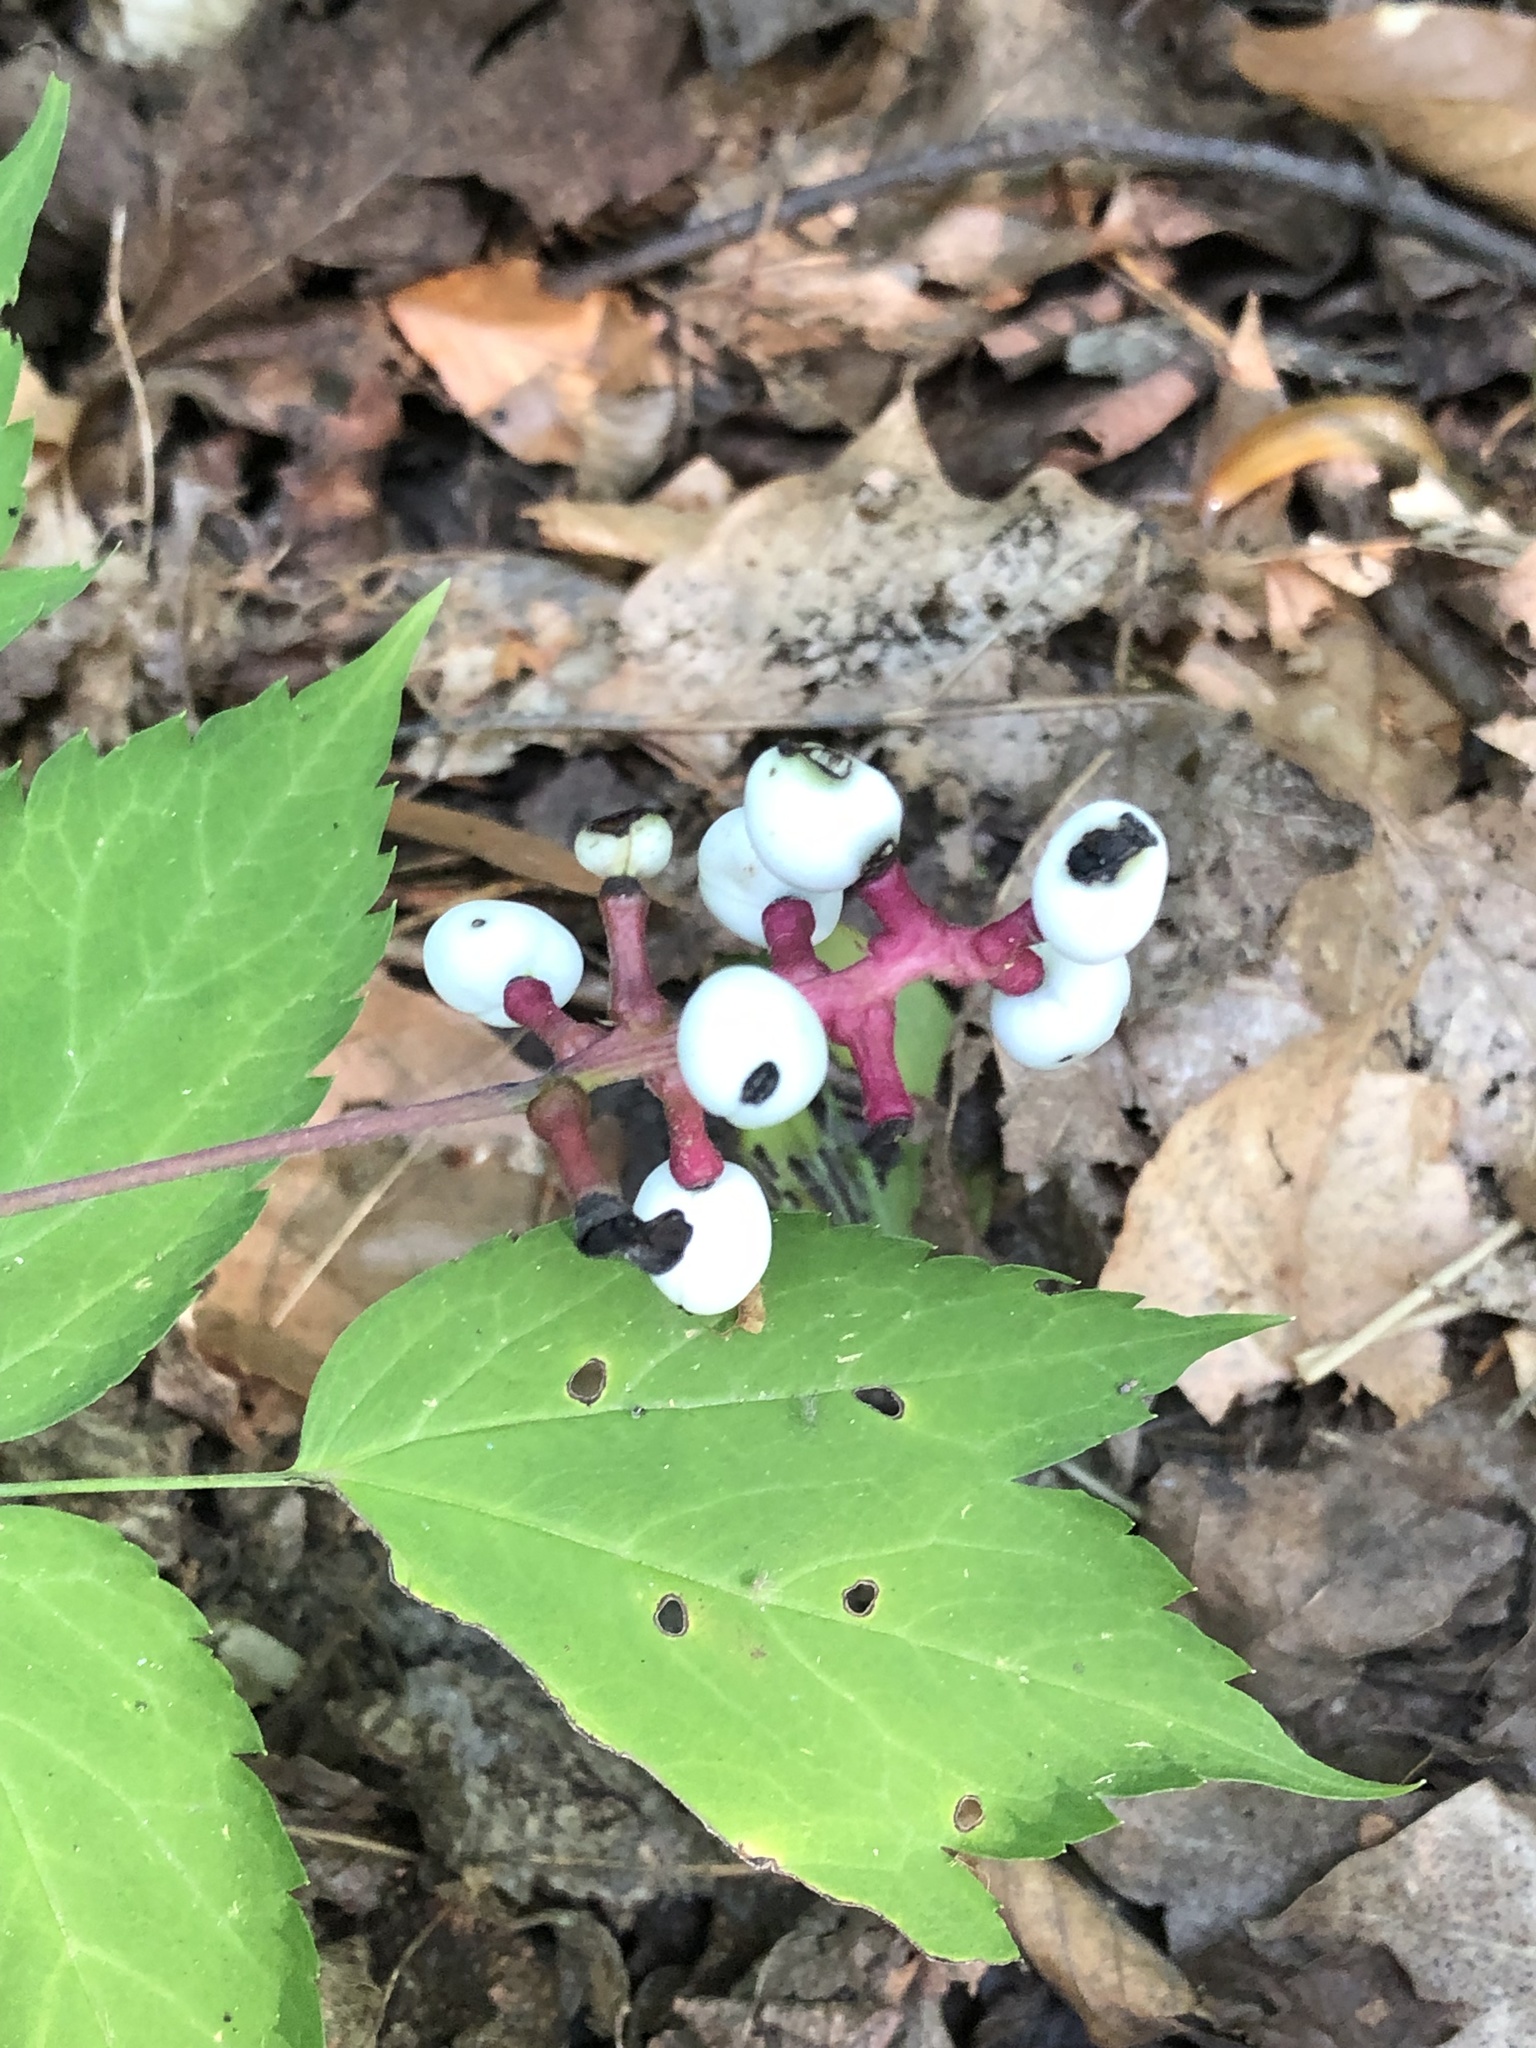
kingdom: Plantae
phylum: Tracheophyta
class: Magnoliopsida
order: Ranunculales
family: Ranunculaceae
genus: Actaea
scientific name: Actaea pachypoda
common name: Doll's-eyes
